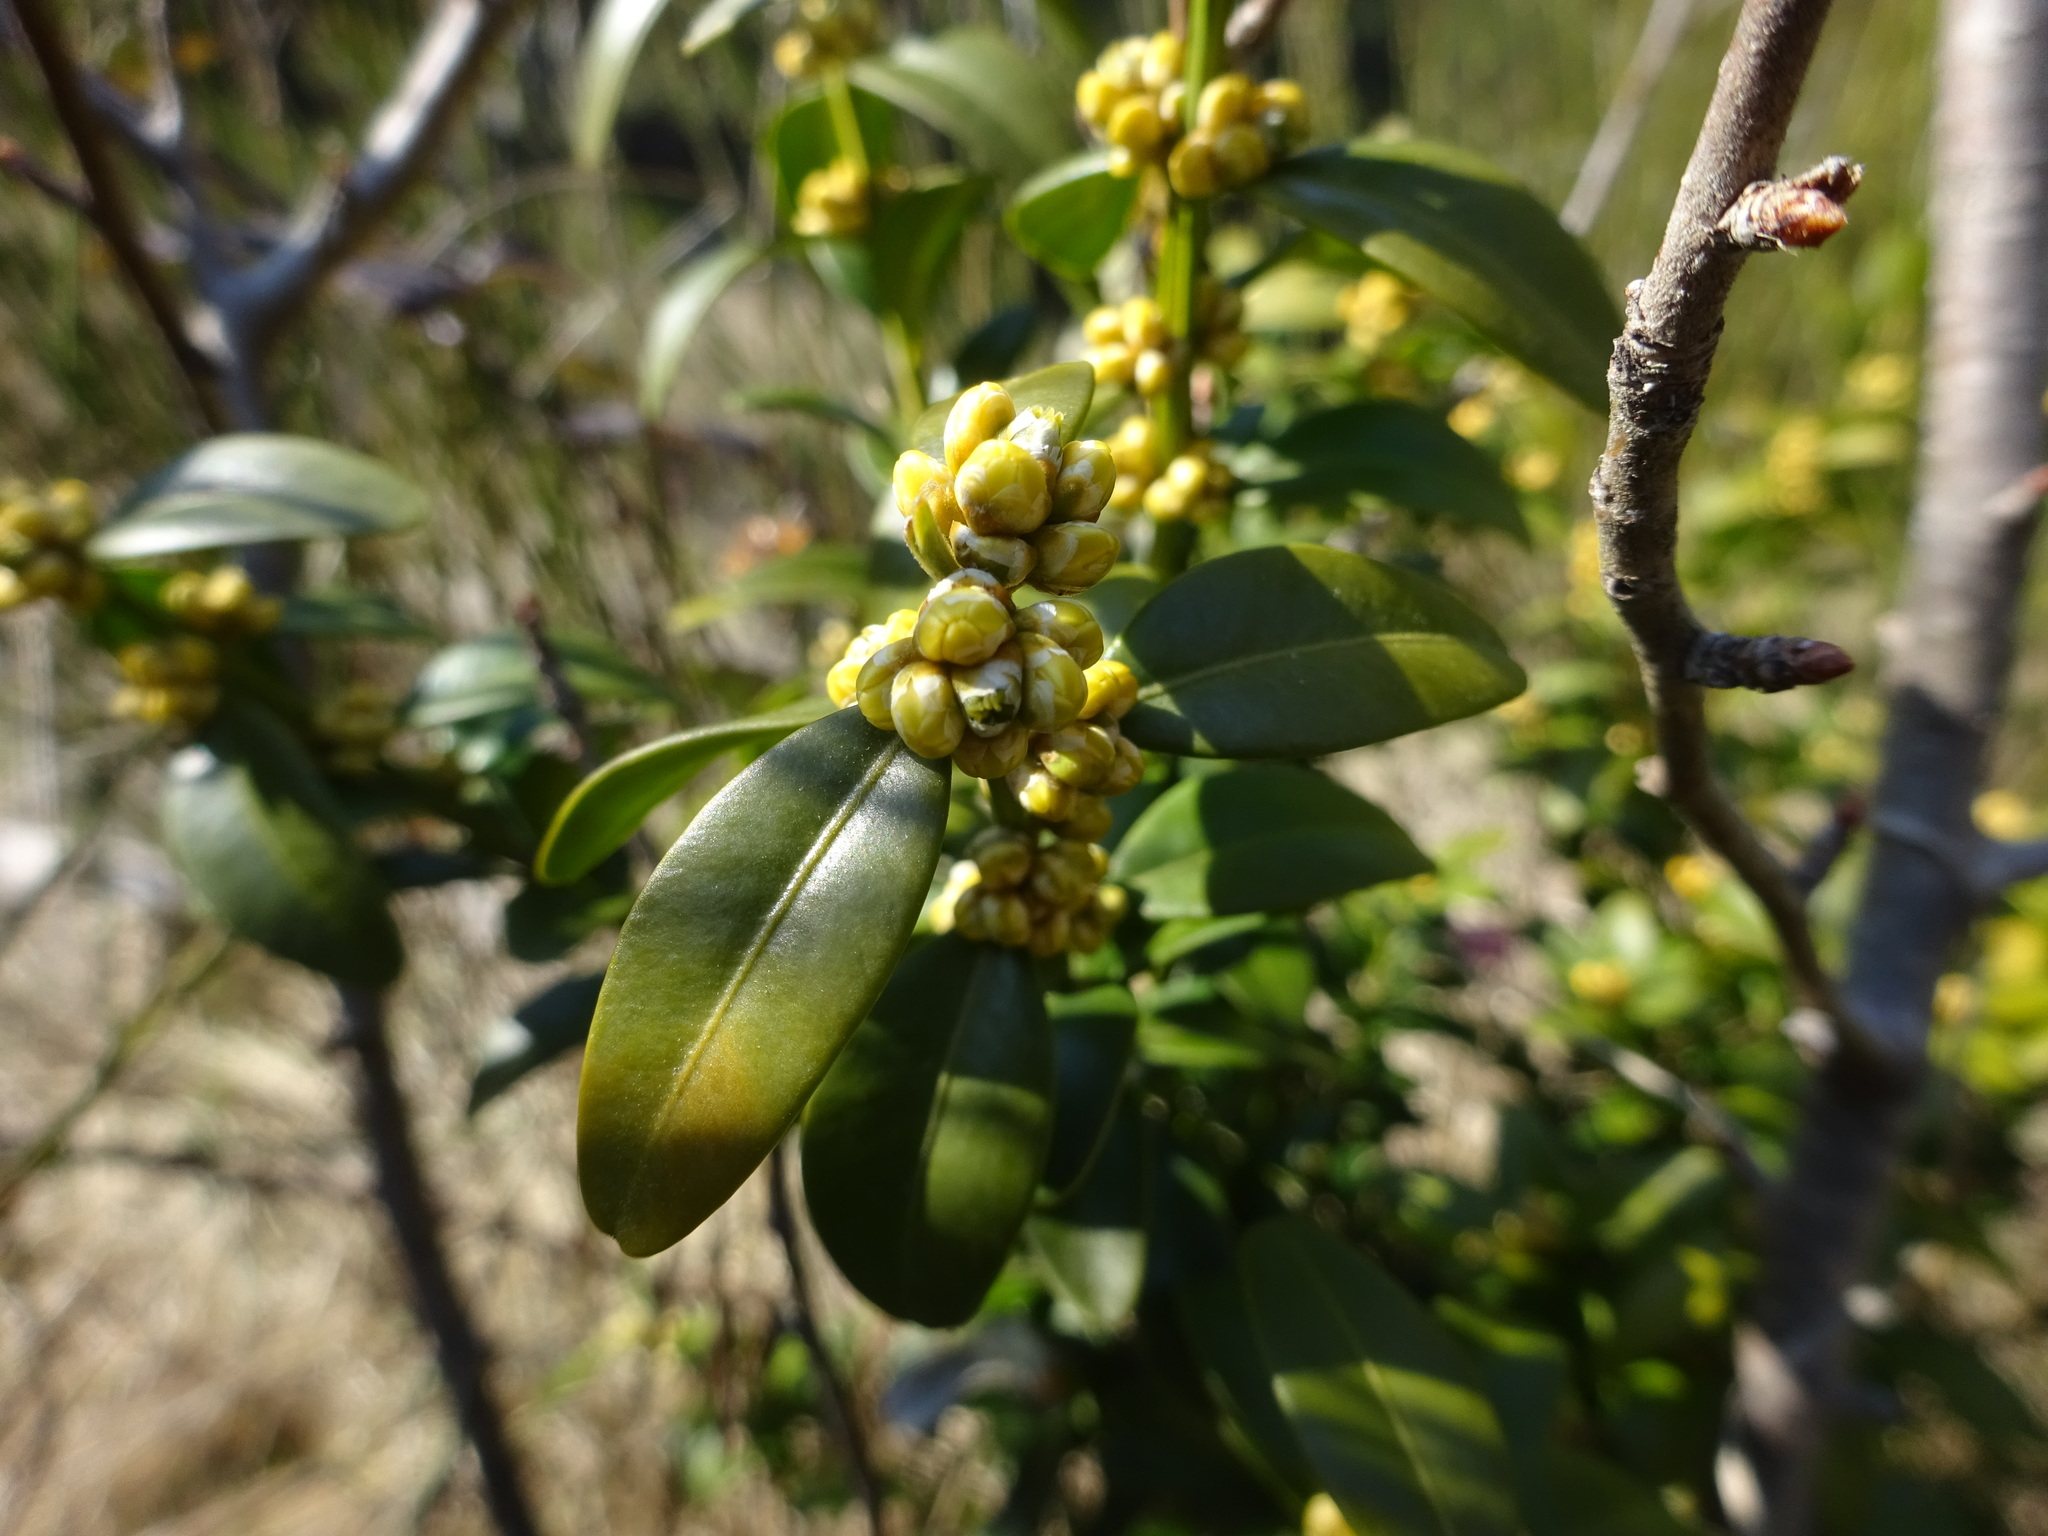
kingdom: Plantae
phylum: Tracheophyta
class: Magnoliopsida
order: Buxales
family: Buxaceae
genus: Buxus
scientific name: Buxus sempervirens
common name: Box
